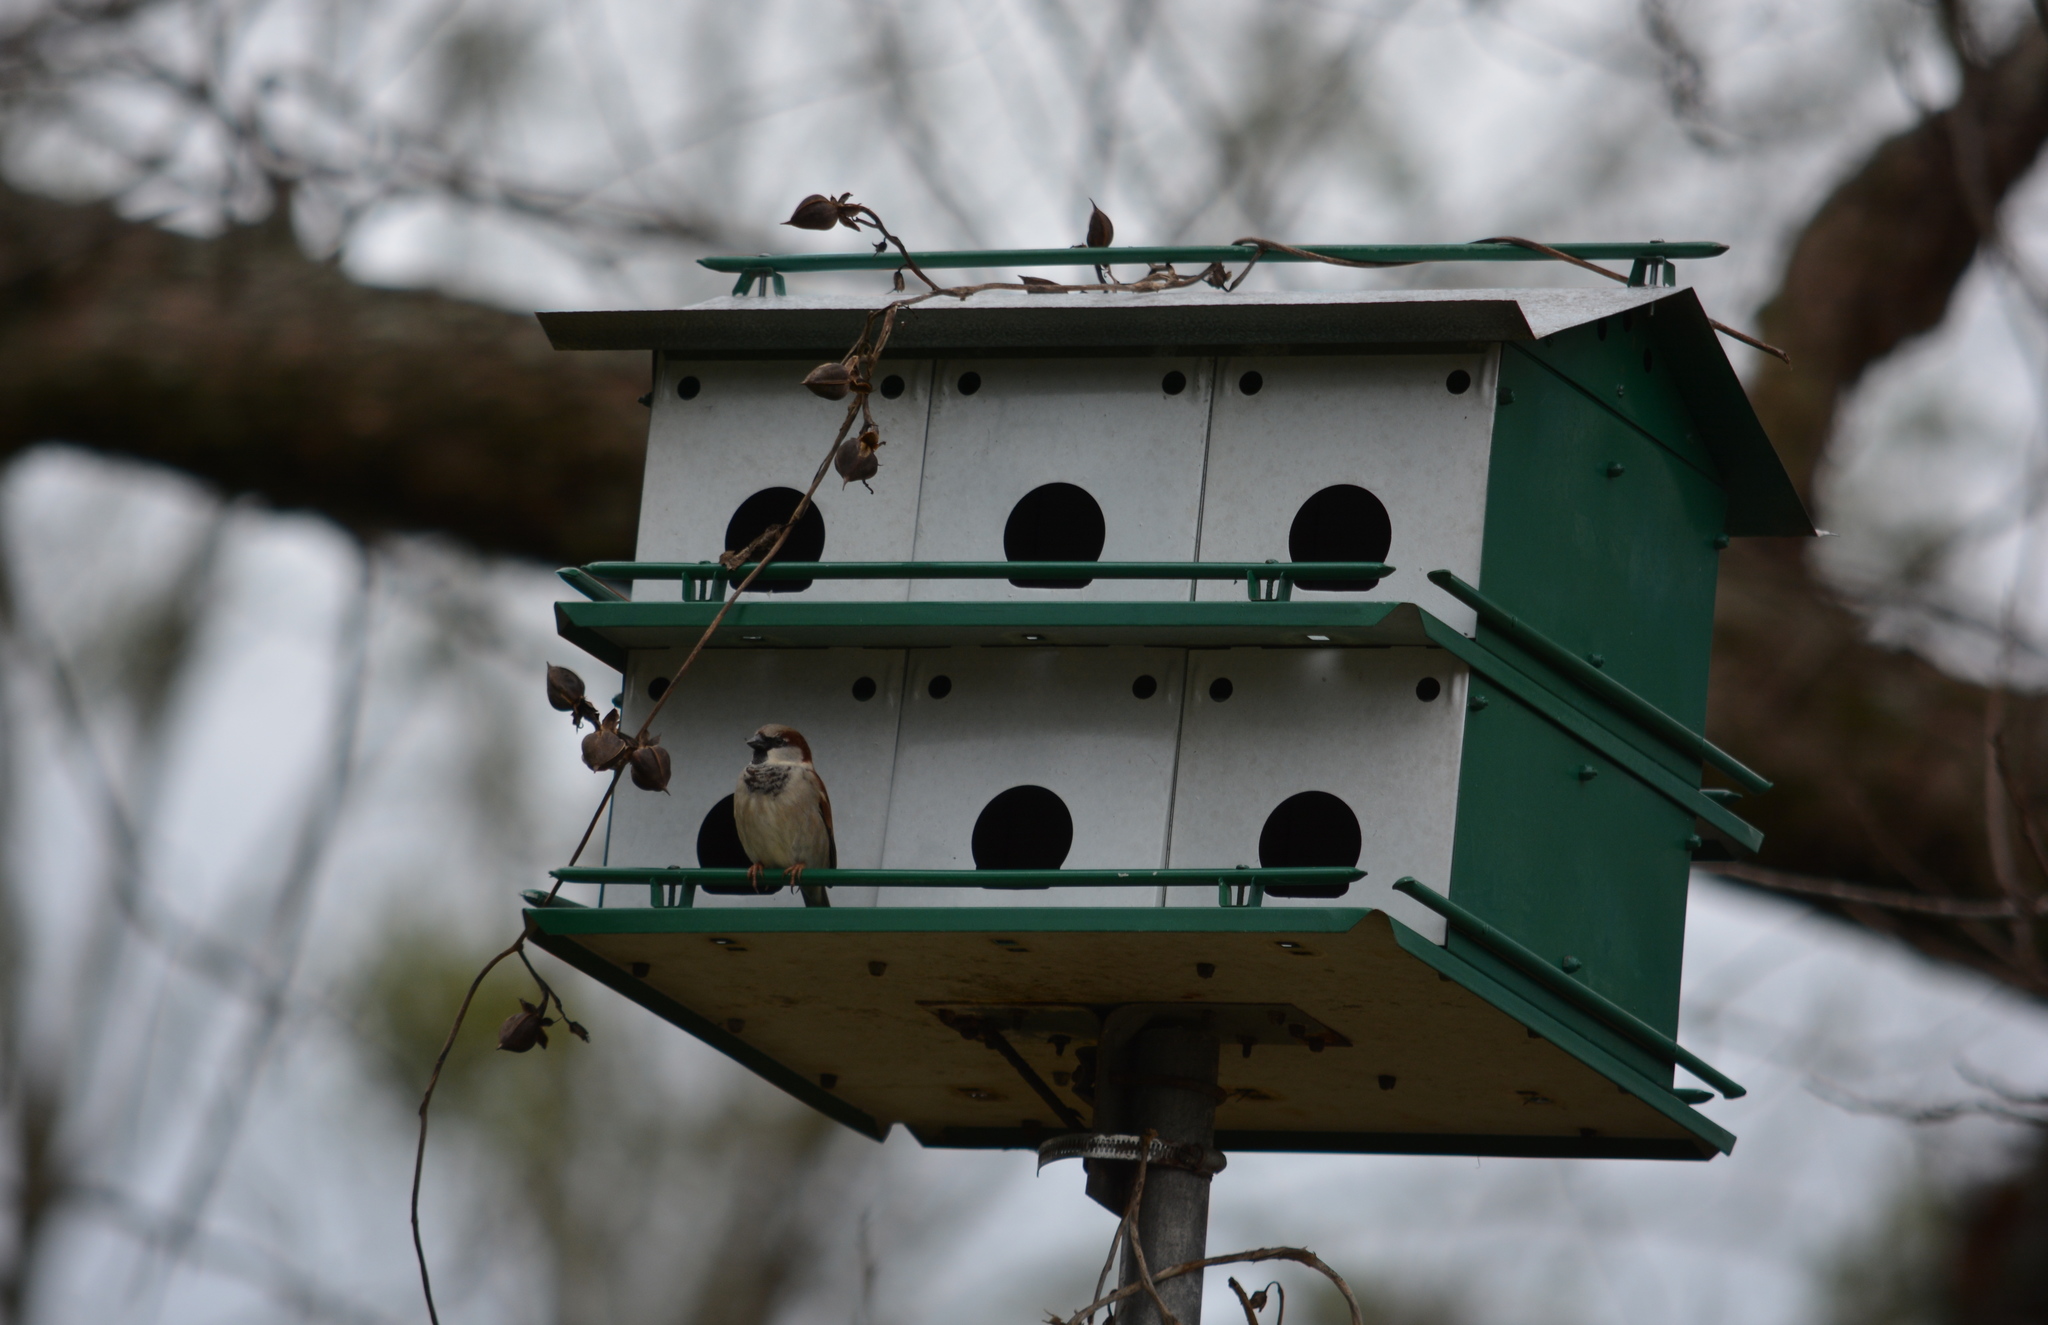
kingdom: Animalia
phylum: Chordata
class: Aves
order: Passeriformes
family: Passeridae
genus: Passer
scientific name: Passer domesticus
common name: House sparrow
